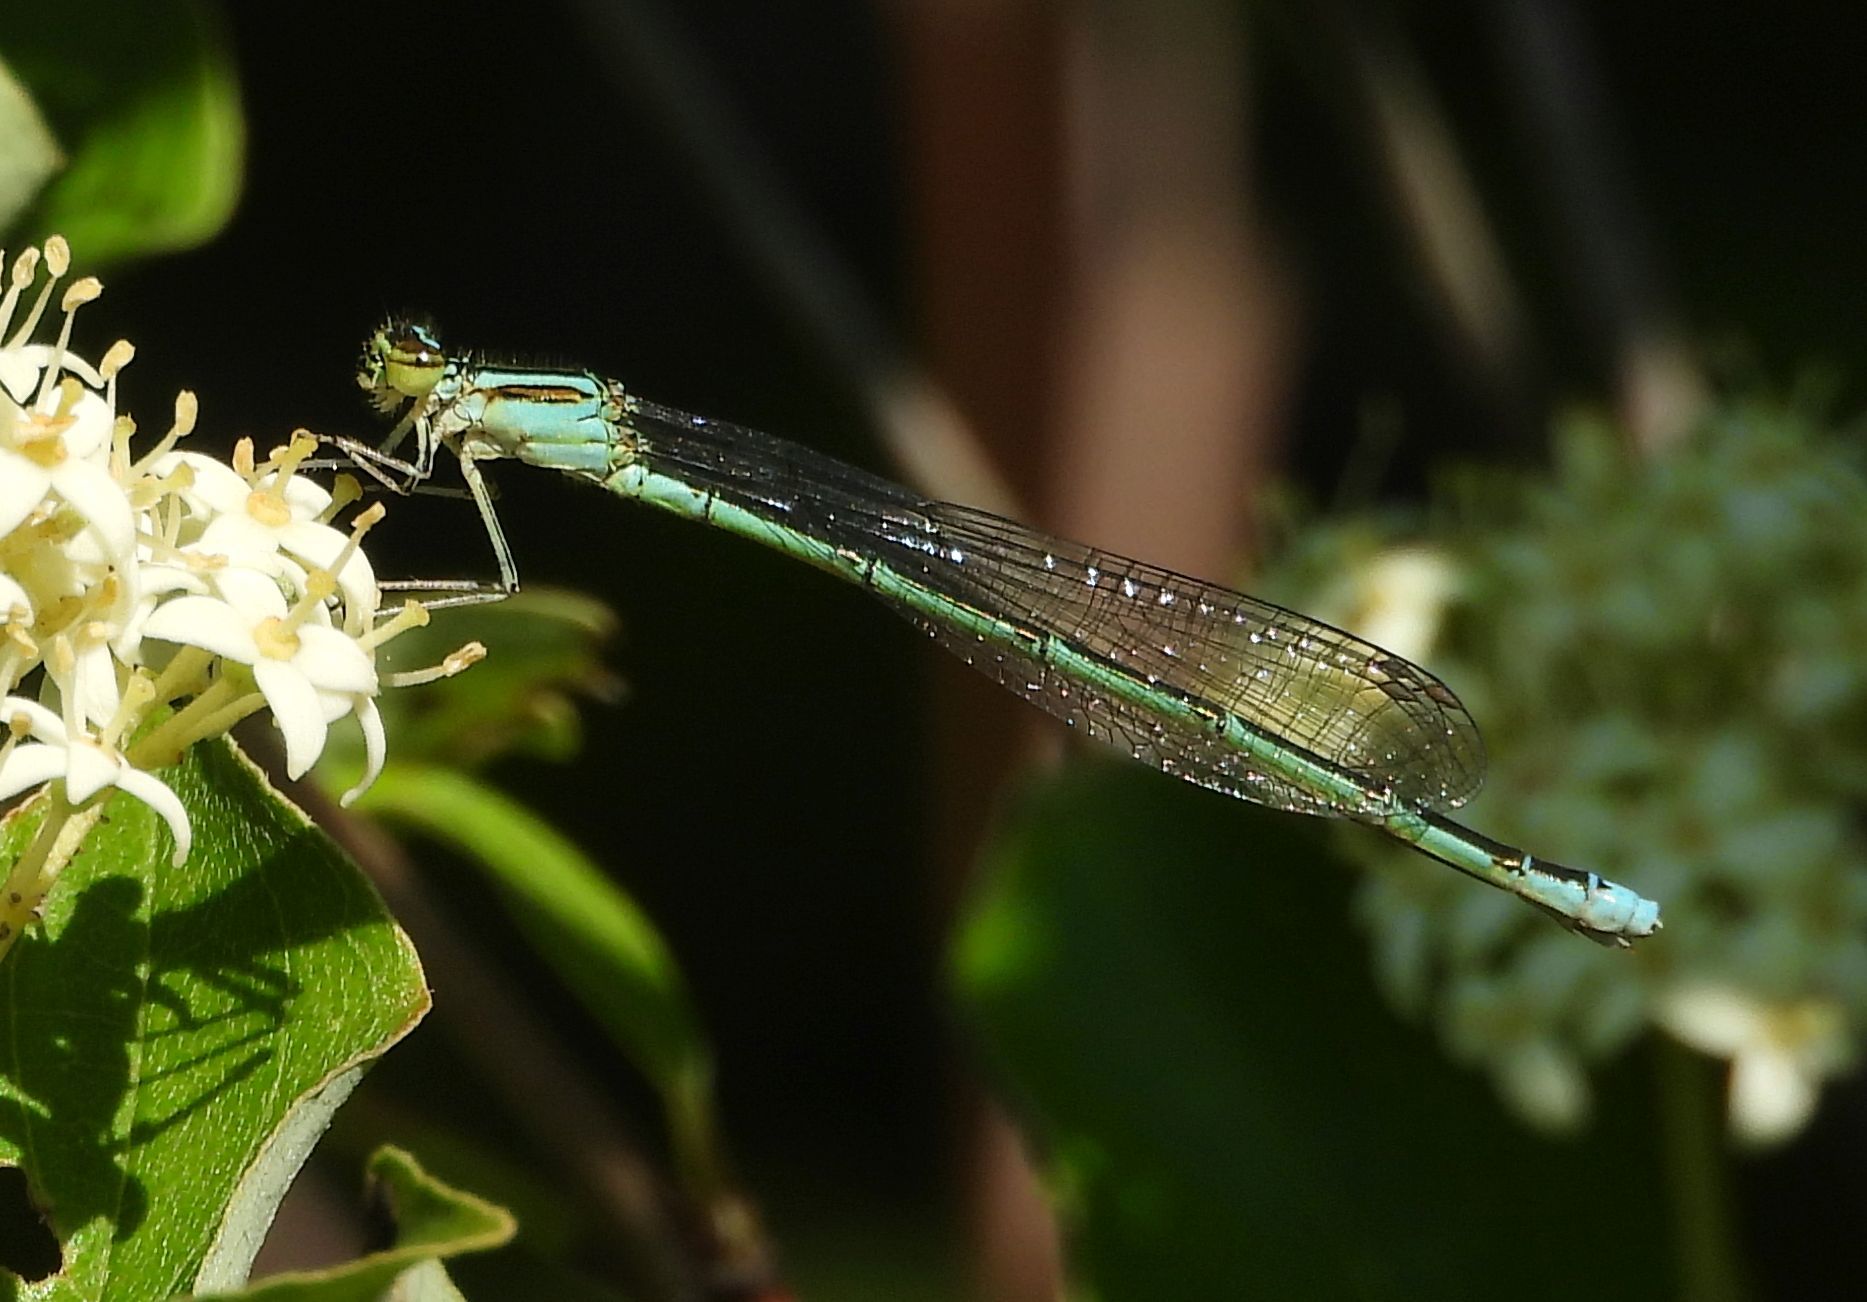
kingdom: Animalia
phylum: Arthropoda
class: Insecta
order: Odonata
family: Coenagrionidae
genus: Enallagma
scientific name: Enallagma exsulans
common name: Stream bluet
